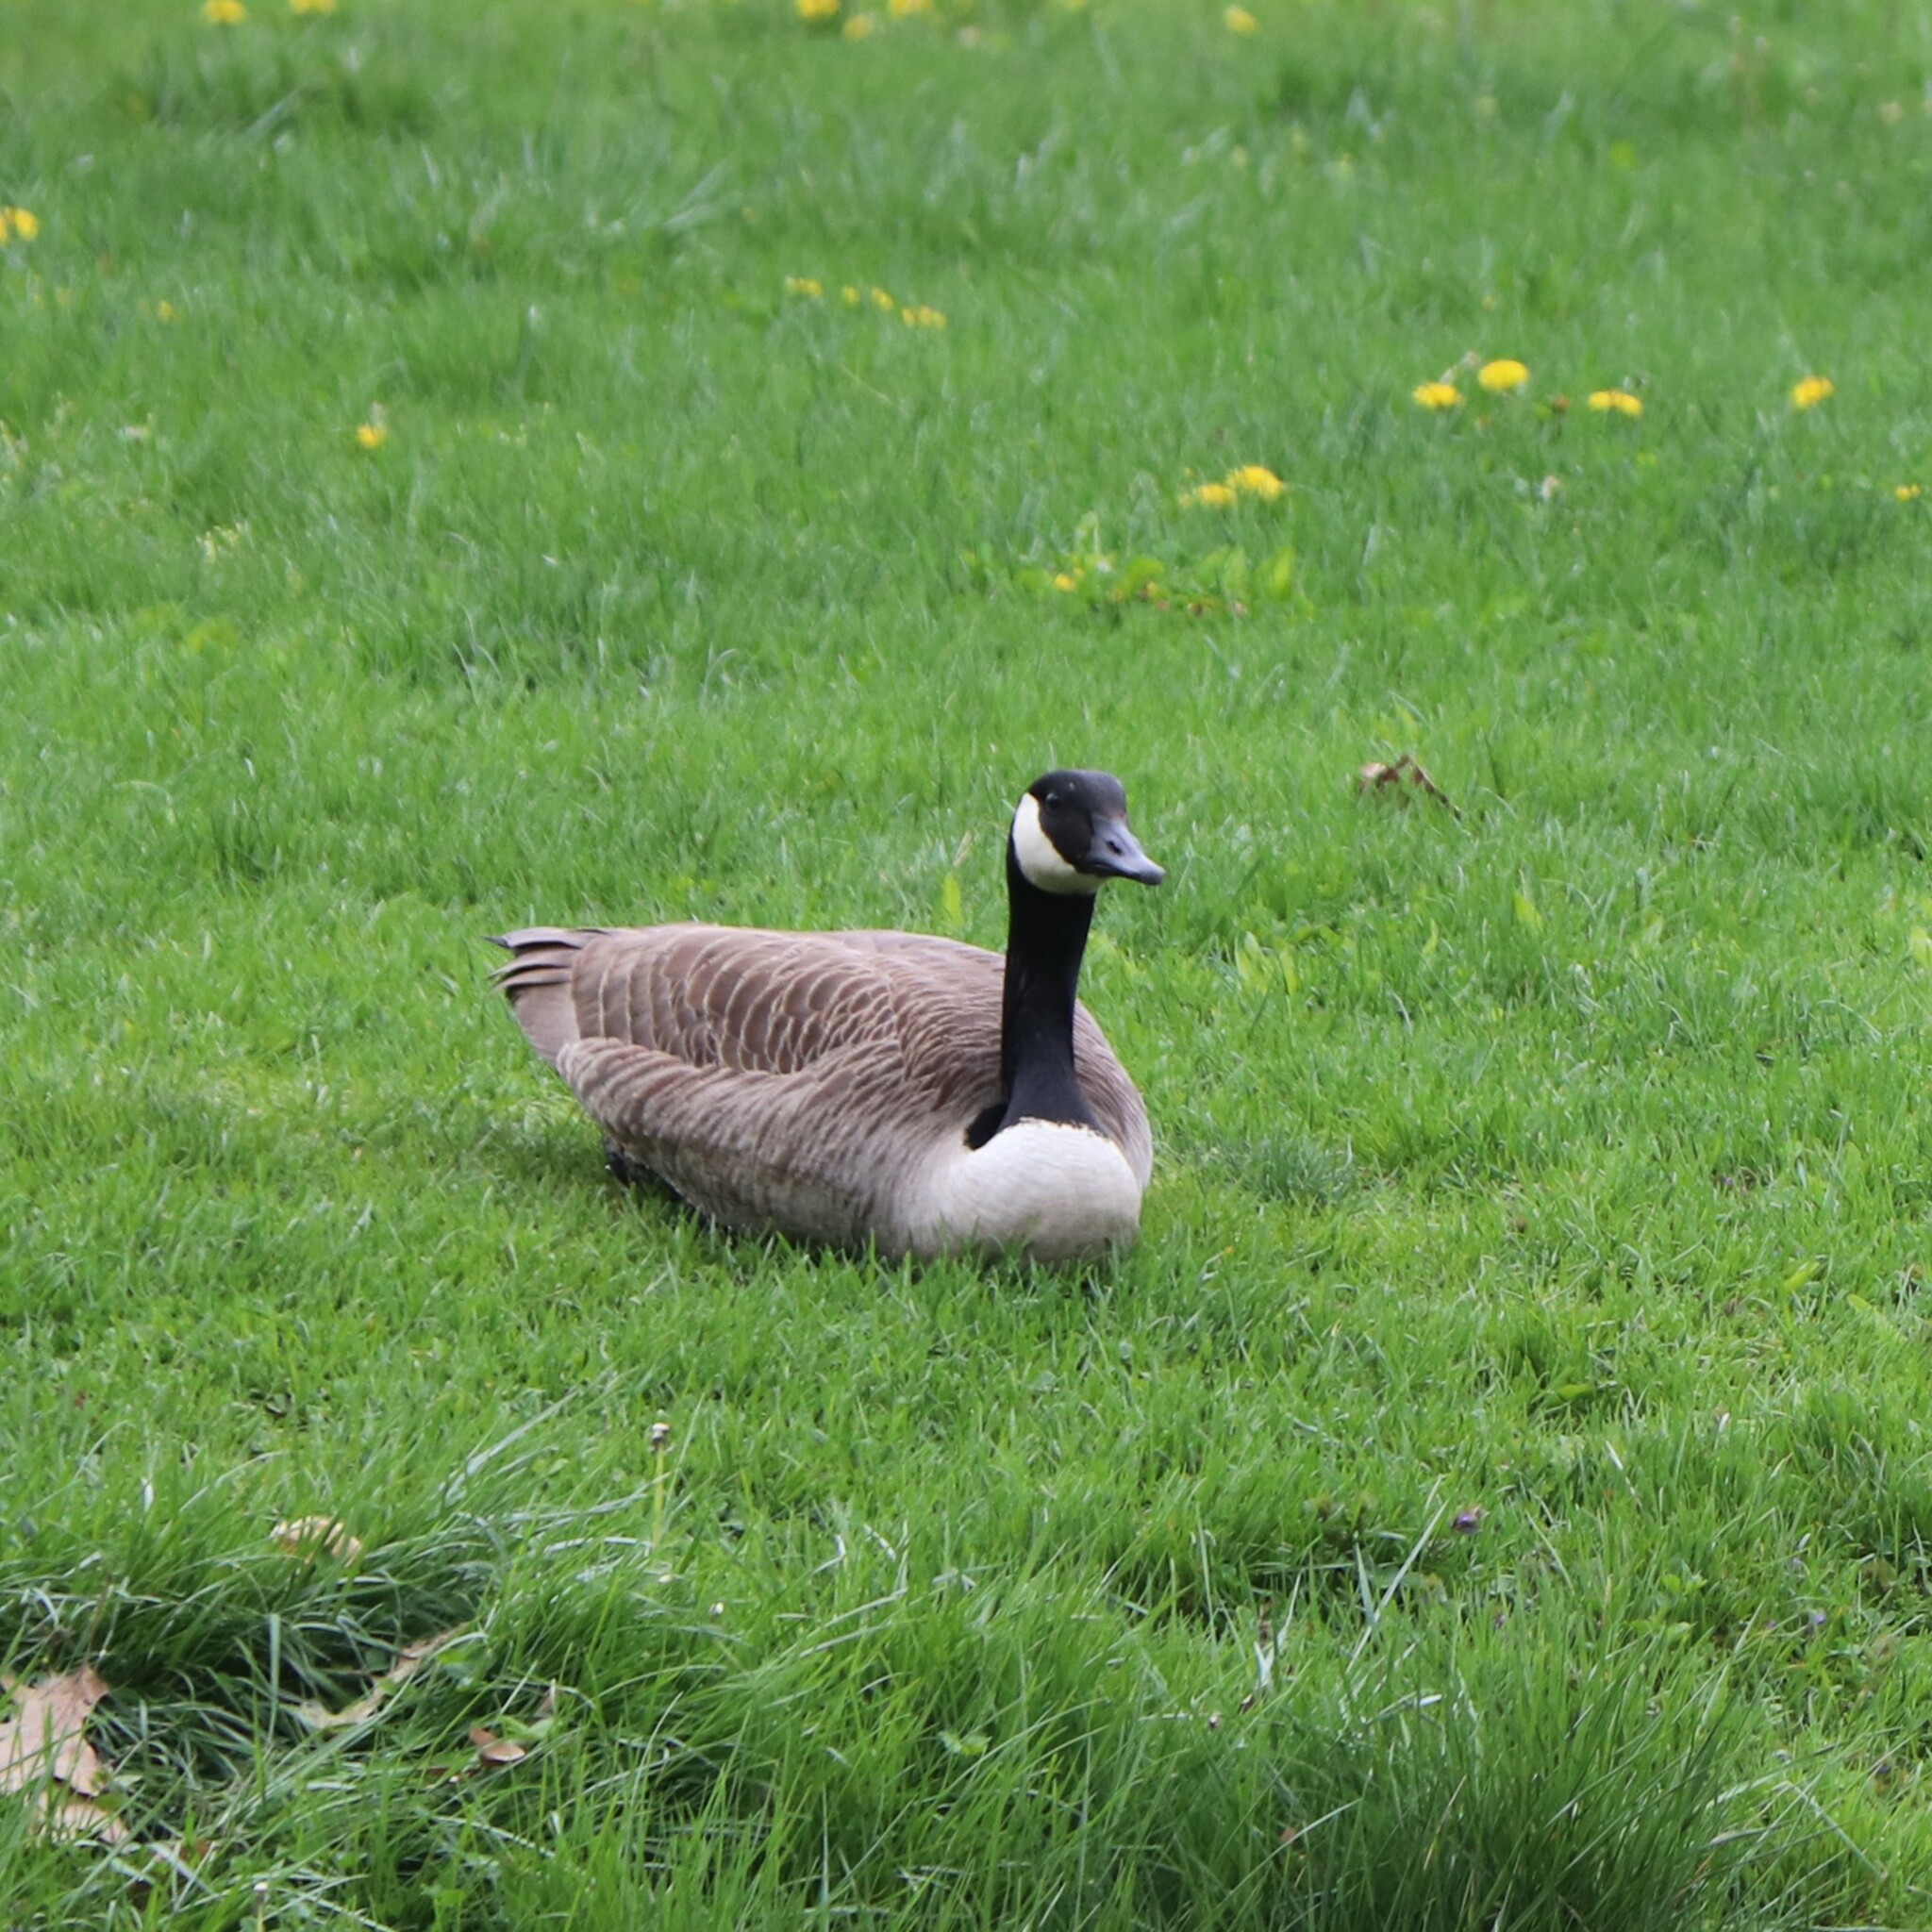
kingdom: Animalia
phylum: Chordata
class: Aves
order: Anseriformes
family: Anatidae
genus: Branta
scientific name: Branta canadensis
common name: Canada goose
